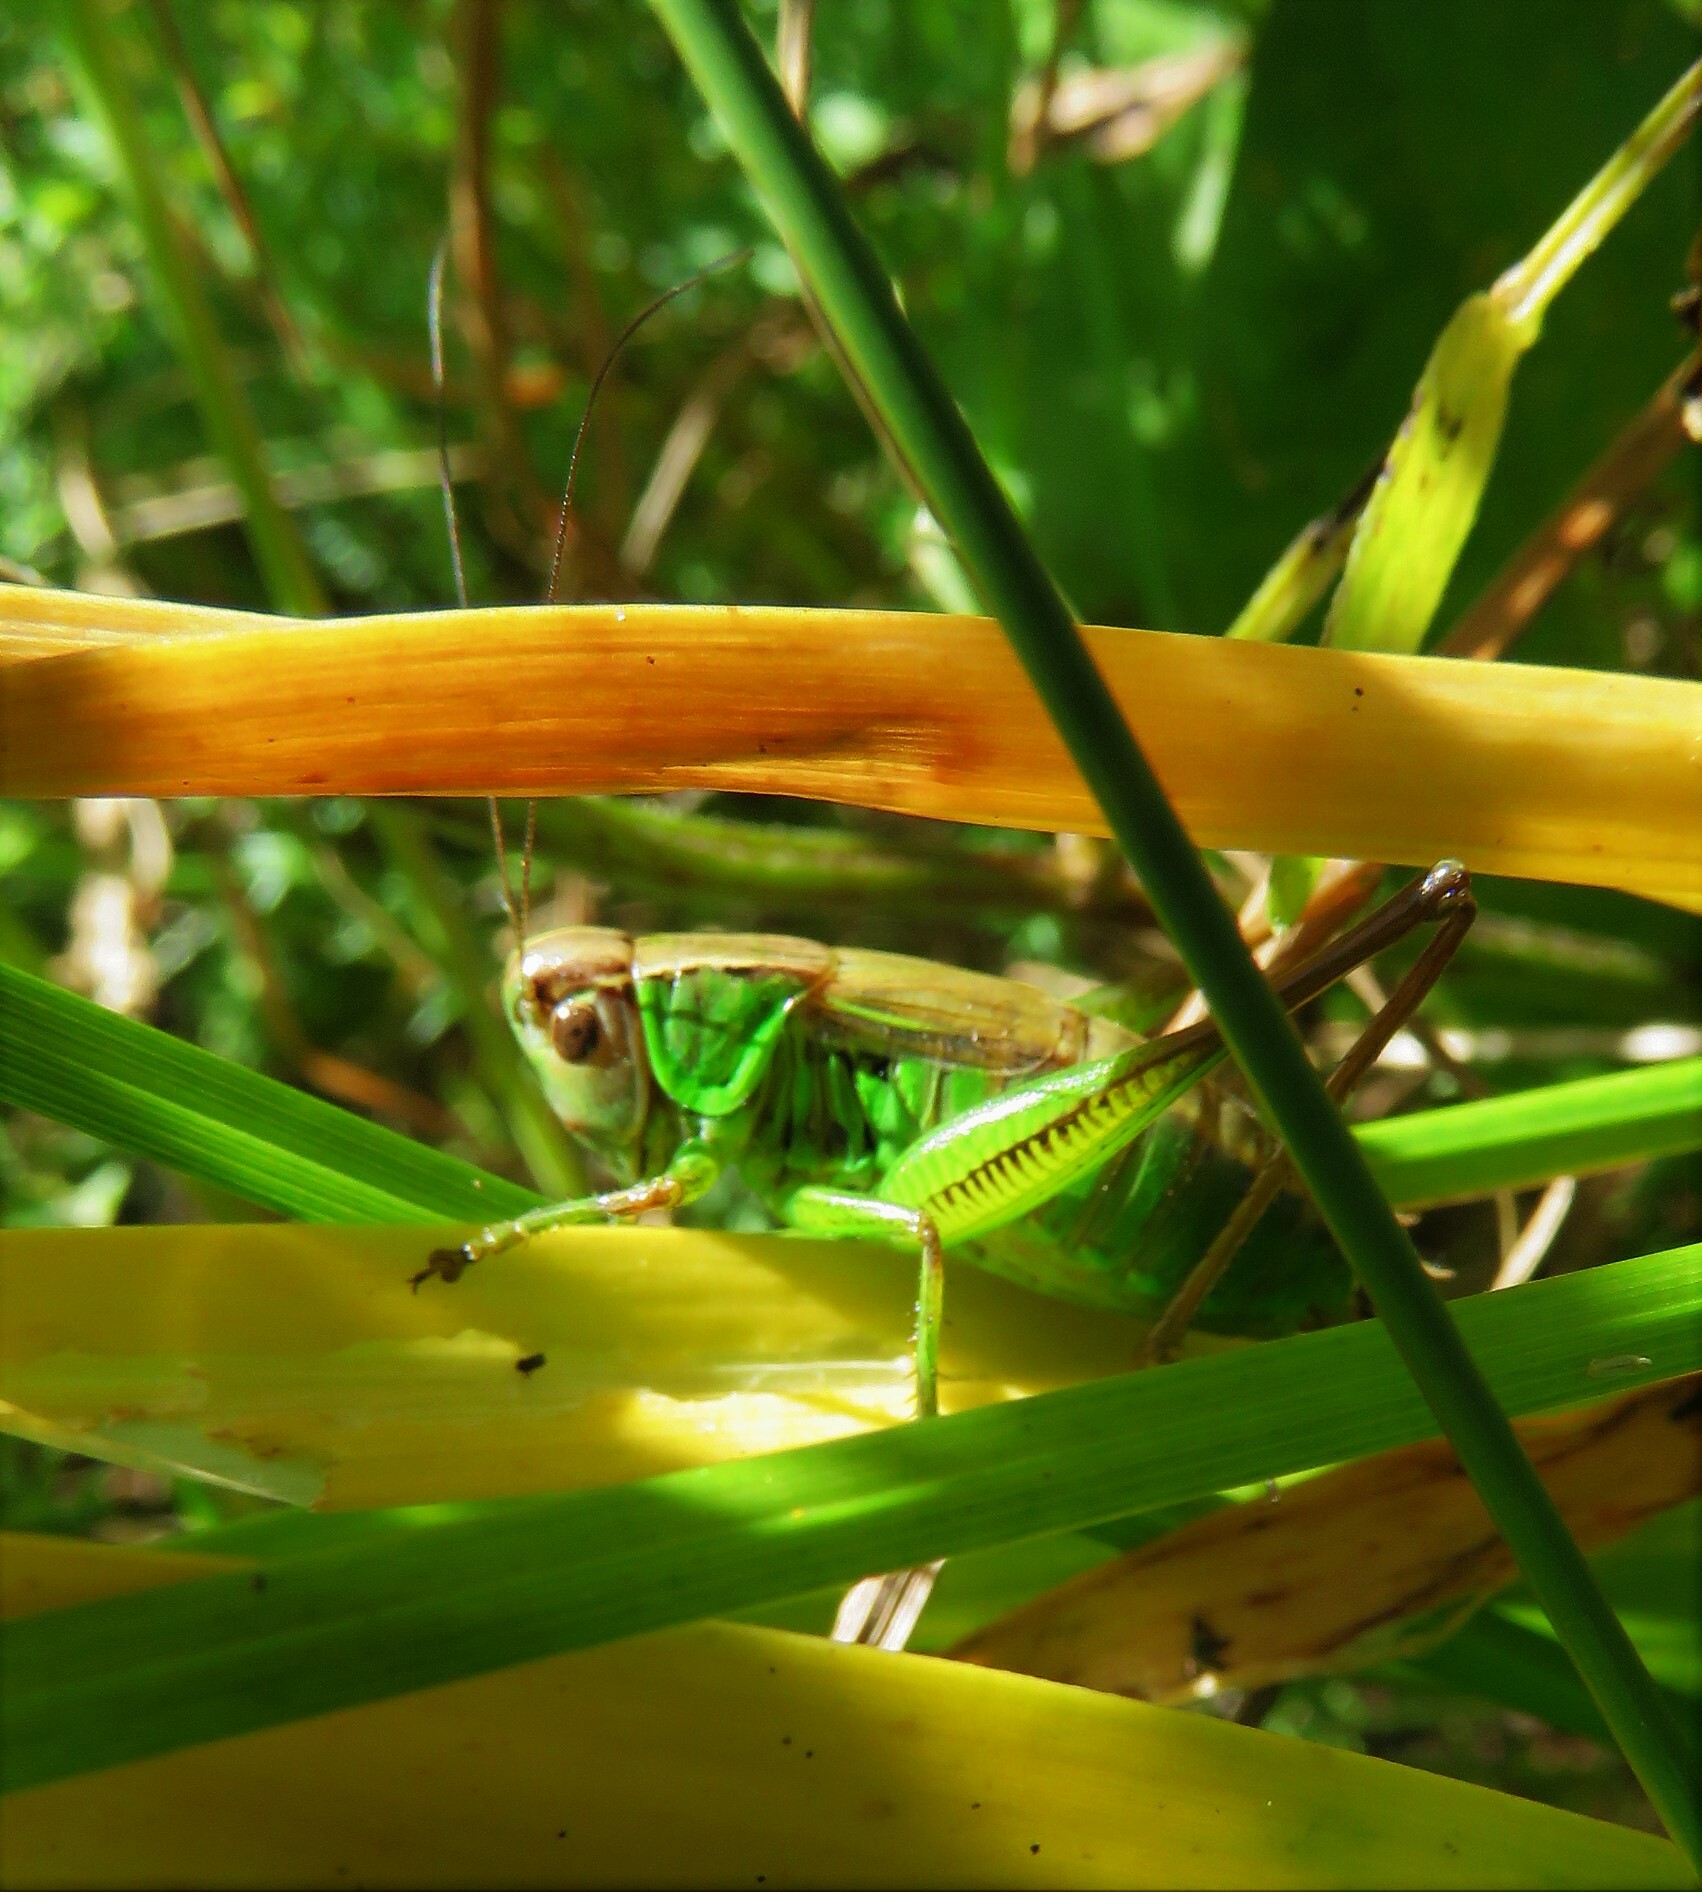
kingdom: Animalia
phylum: Arthropoda
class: Insecta
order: Orthoptera
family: Tettigoniidae
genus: Roeseliana
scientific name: Roeseliana roeselii
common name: Roesel's bush cricket
